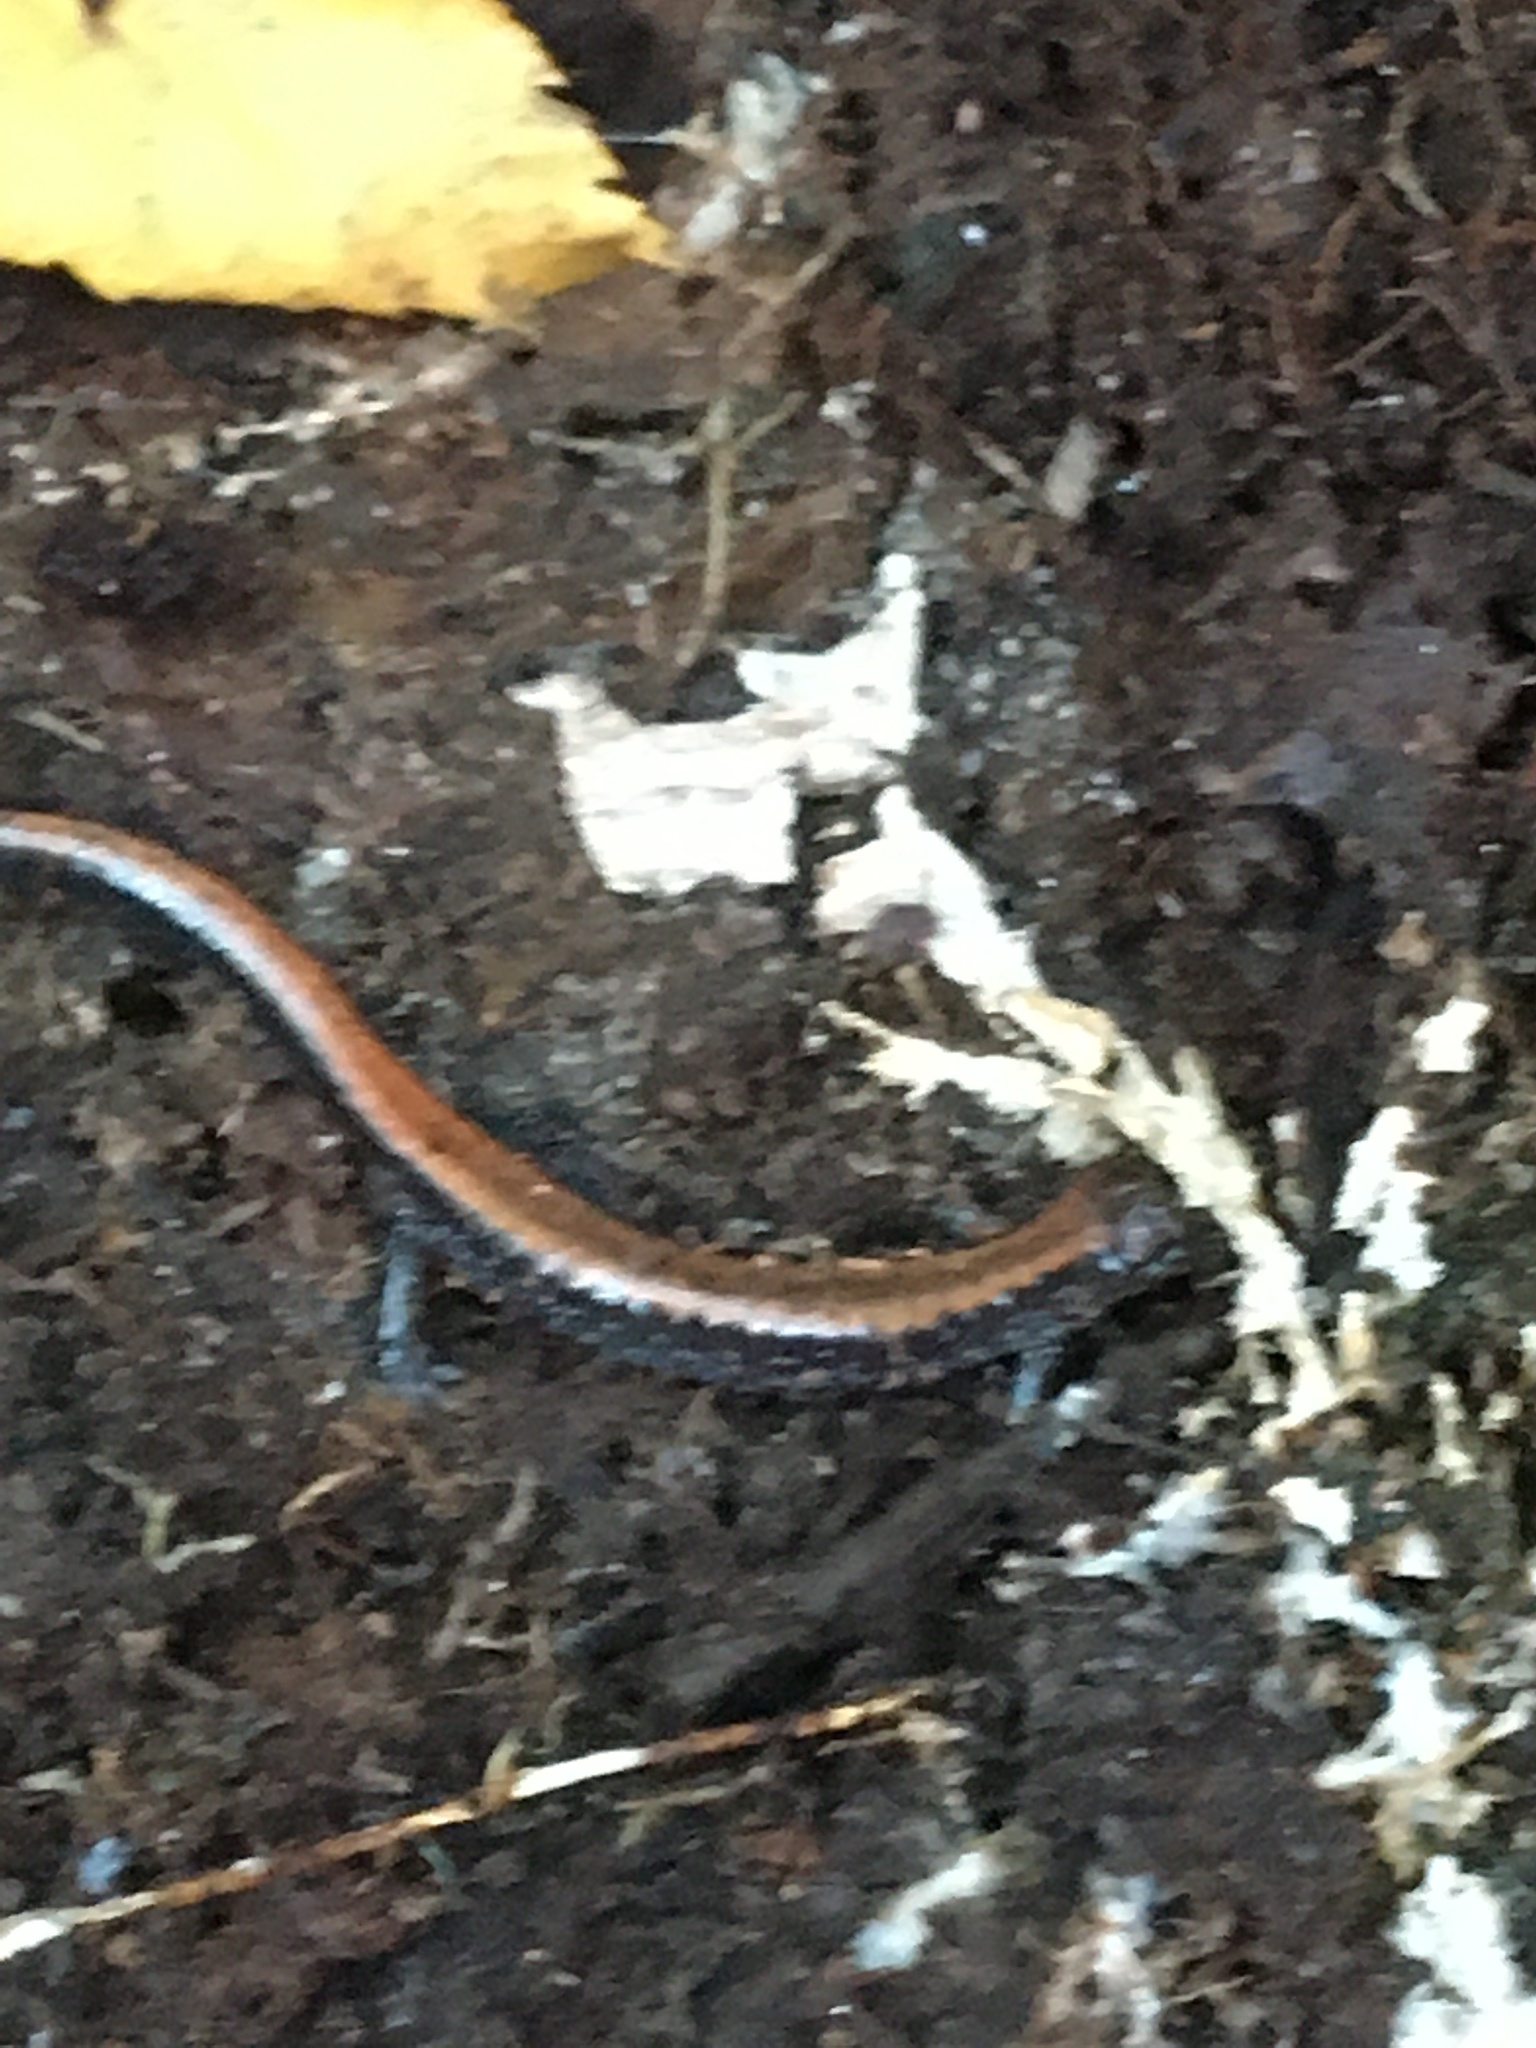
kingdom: Animalia
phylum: Chordata
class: Amphibia
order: Caudata
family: Plethodontidae
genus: Plethodon
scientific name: Plethodon cinereus
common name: Redback salamander
